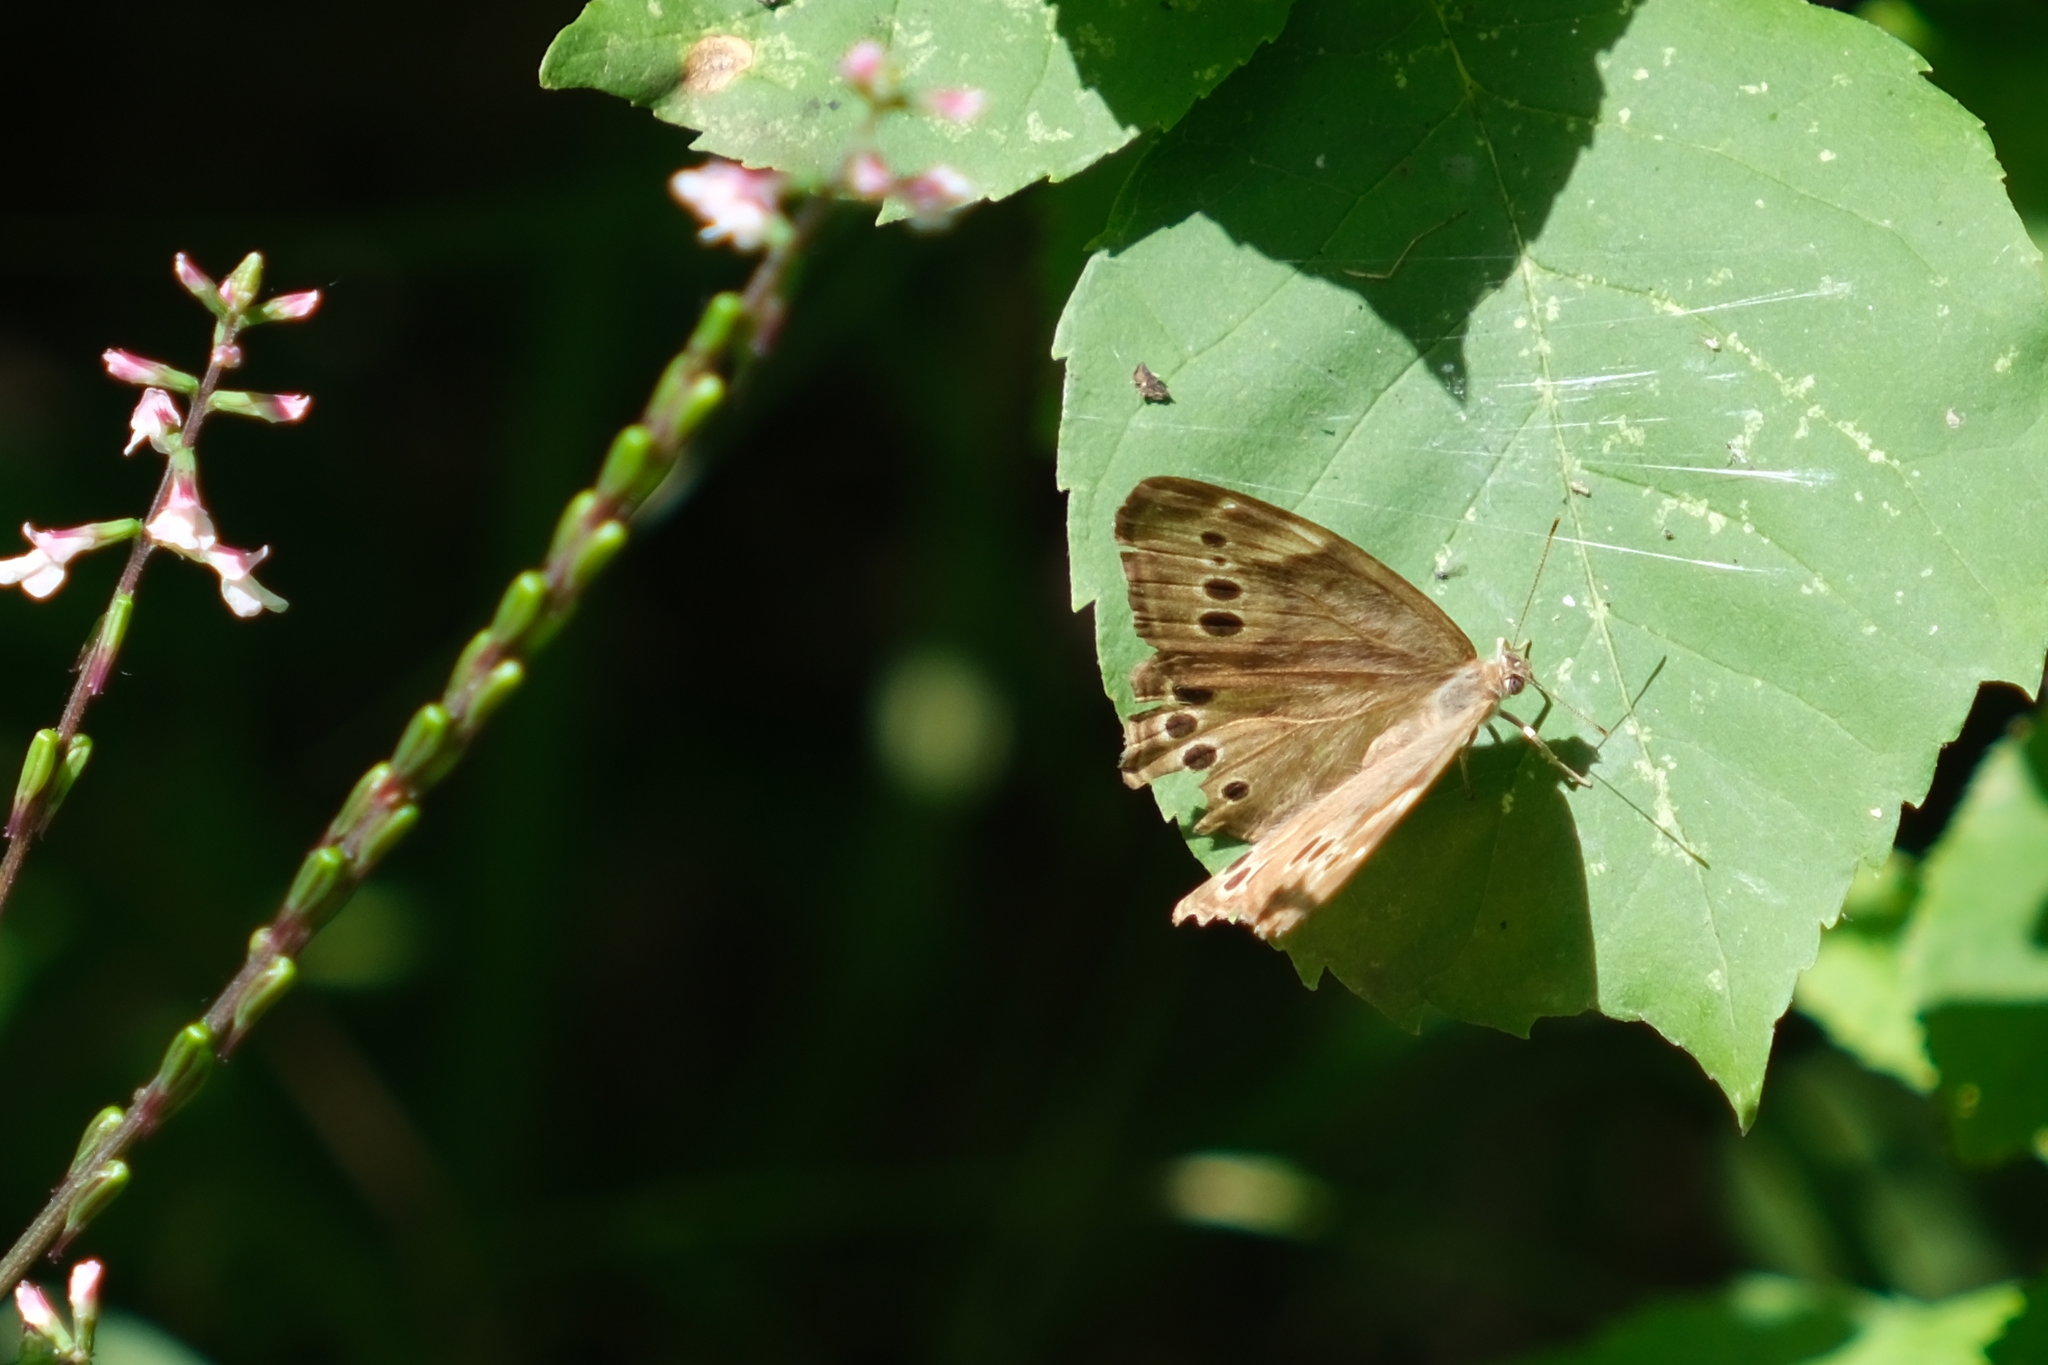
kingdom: Animalia
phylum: Arthropoda
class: Insecta
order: Lepidoptera
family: Nymphalidae
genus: Lethe
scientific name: Lethe anthedon
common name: Northern pearly-eye
